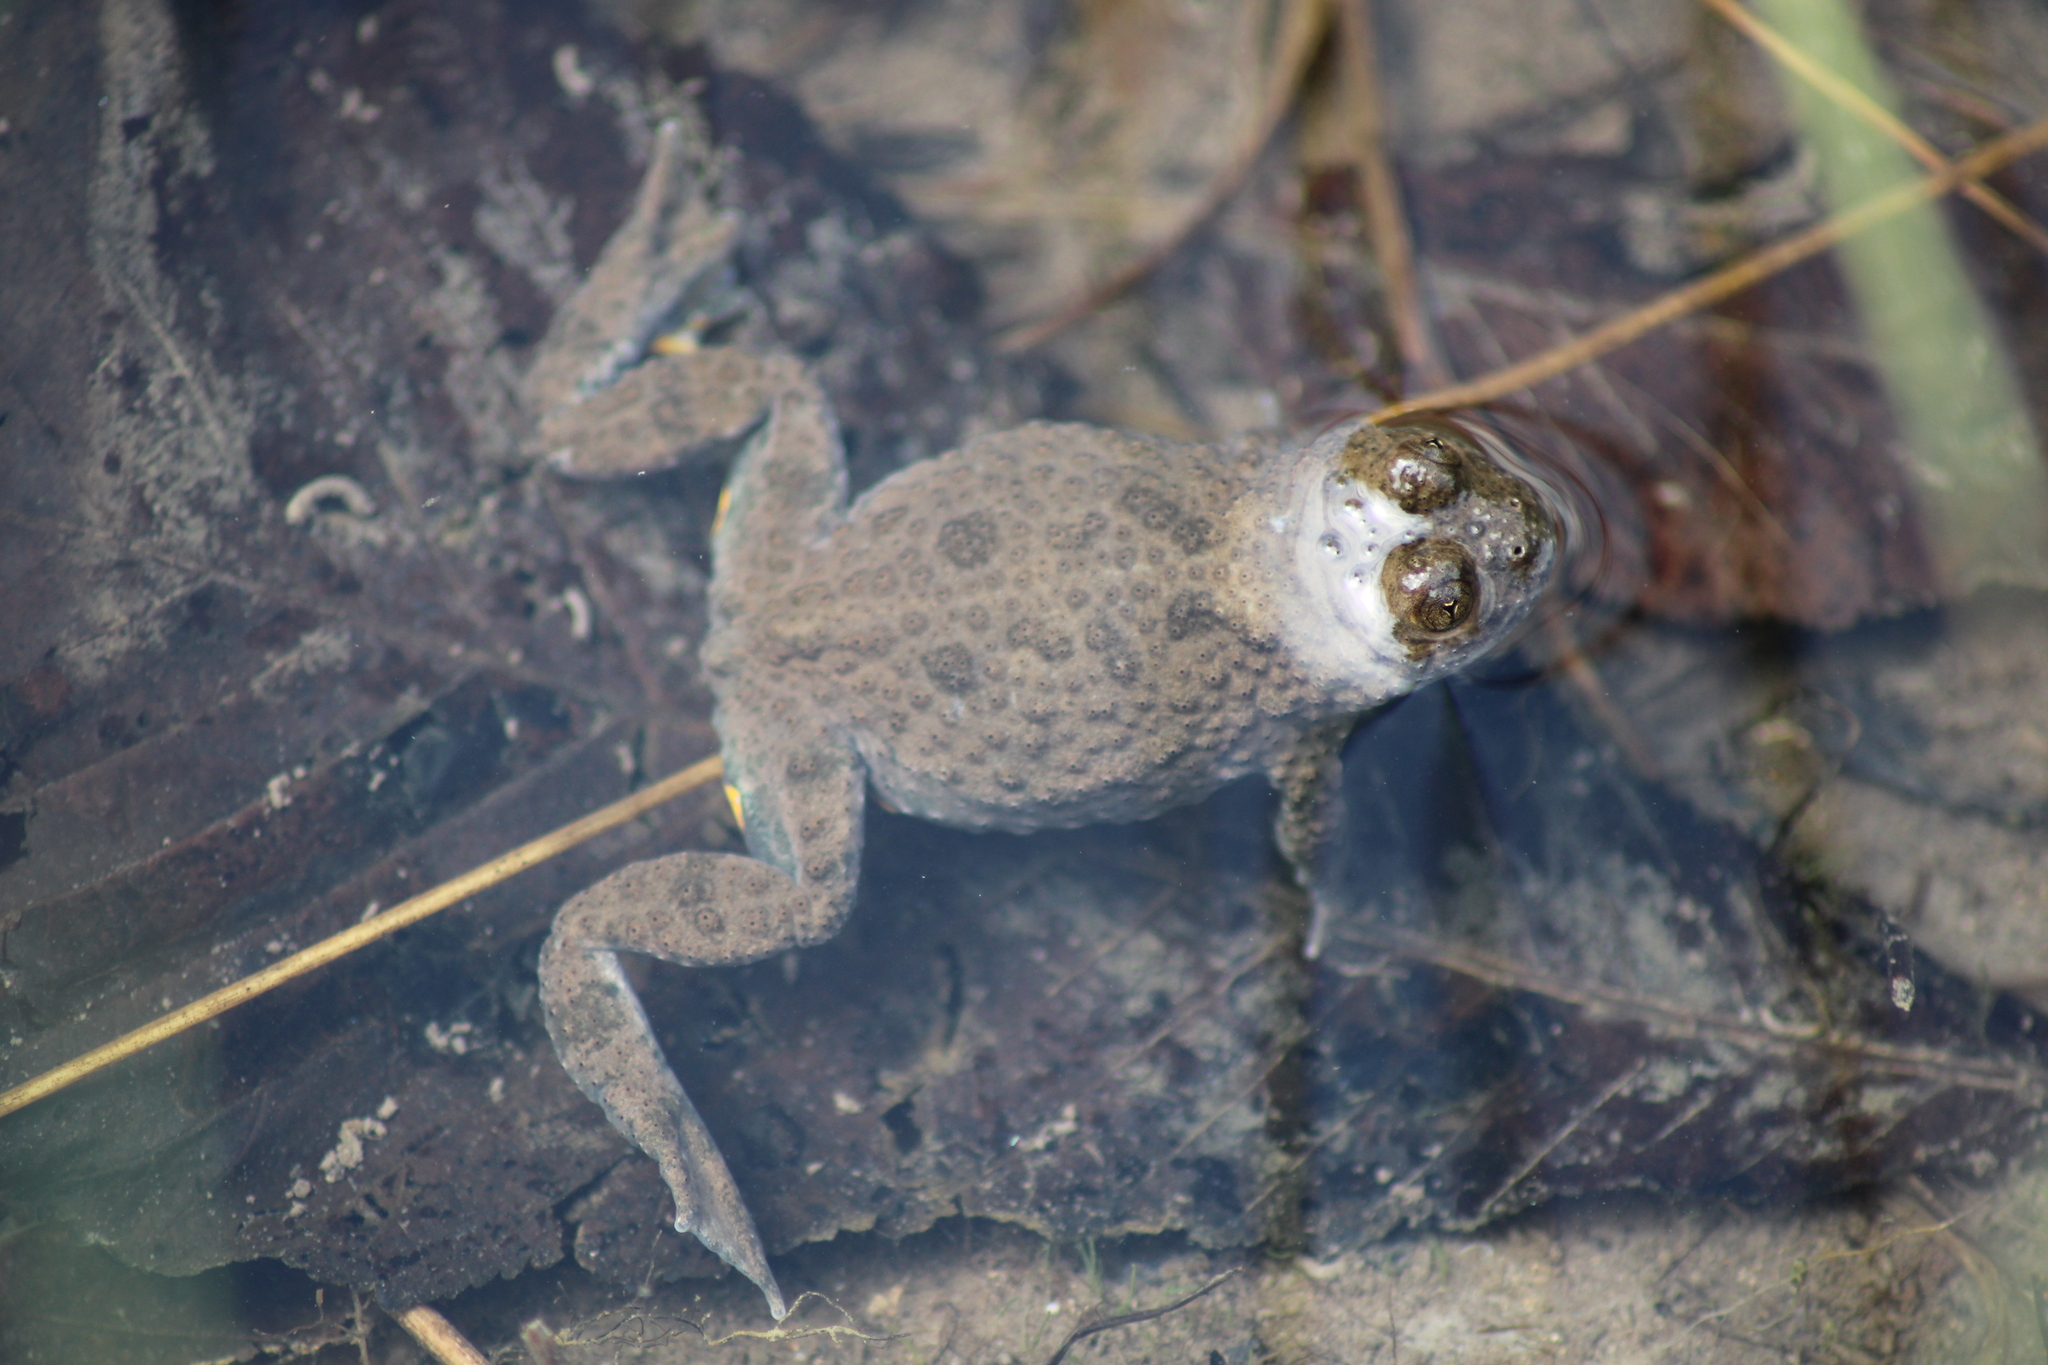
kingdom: Animalia
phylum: Chordata
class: Amphibia
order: Anura
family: Bombinatoridae
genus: Bombina
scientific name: Bombina variegata
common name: Yellow-bellied toad
